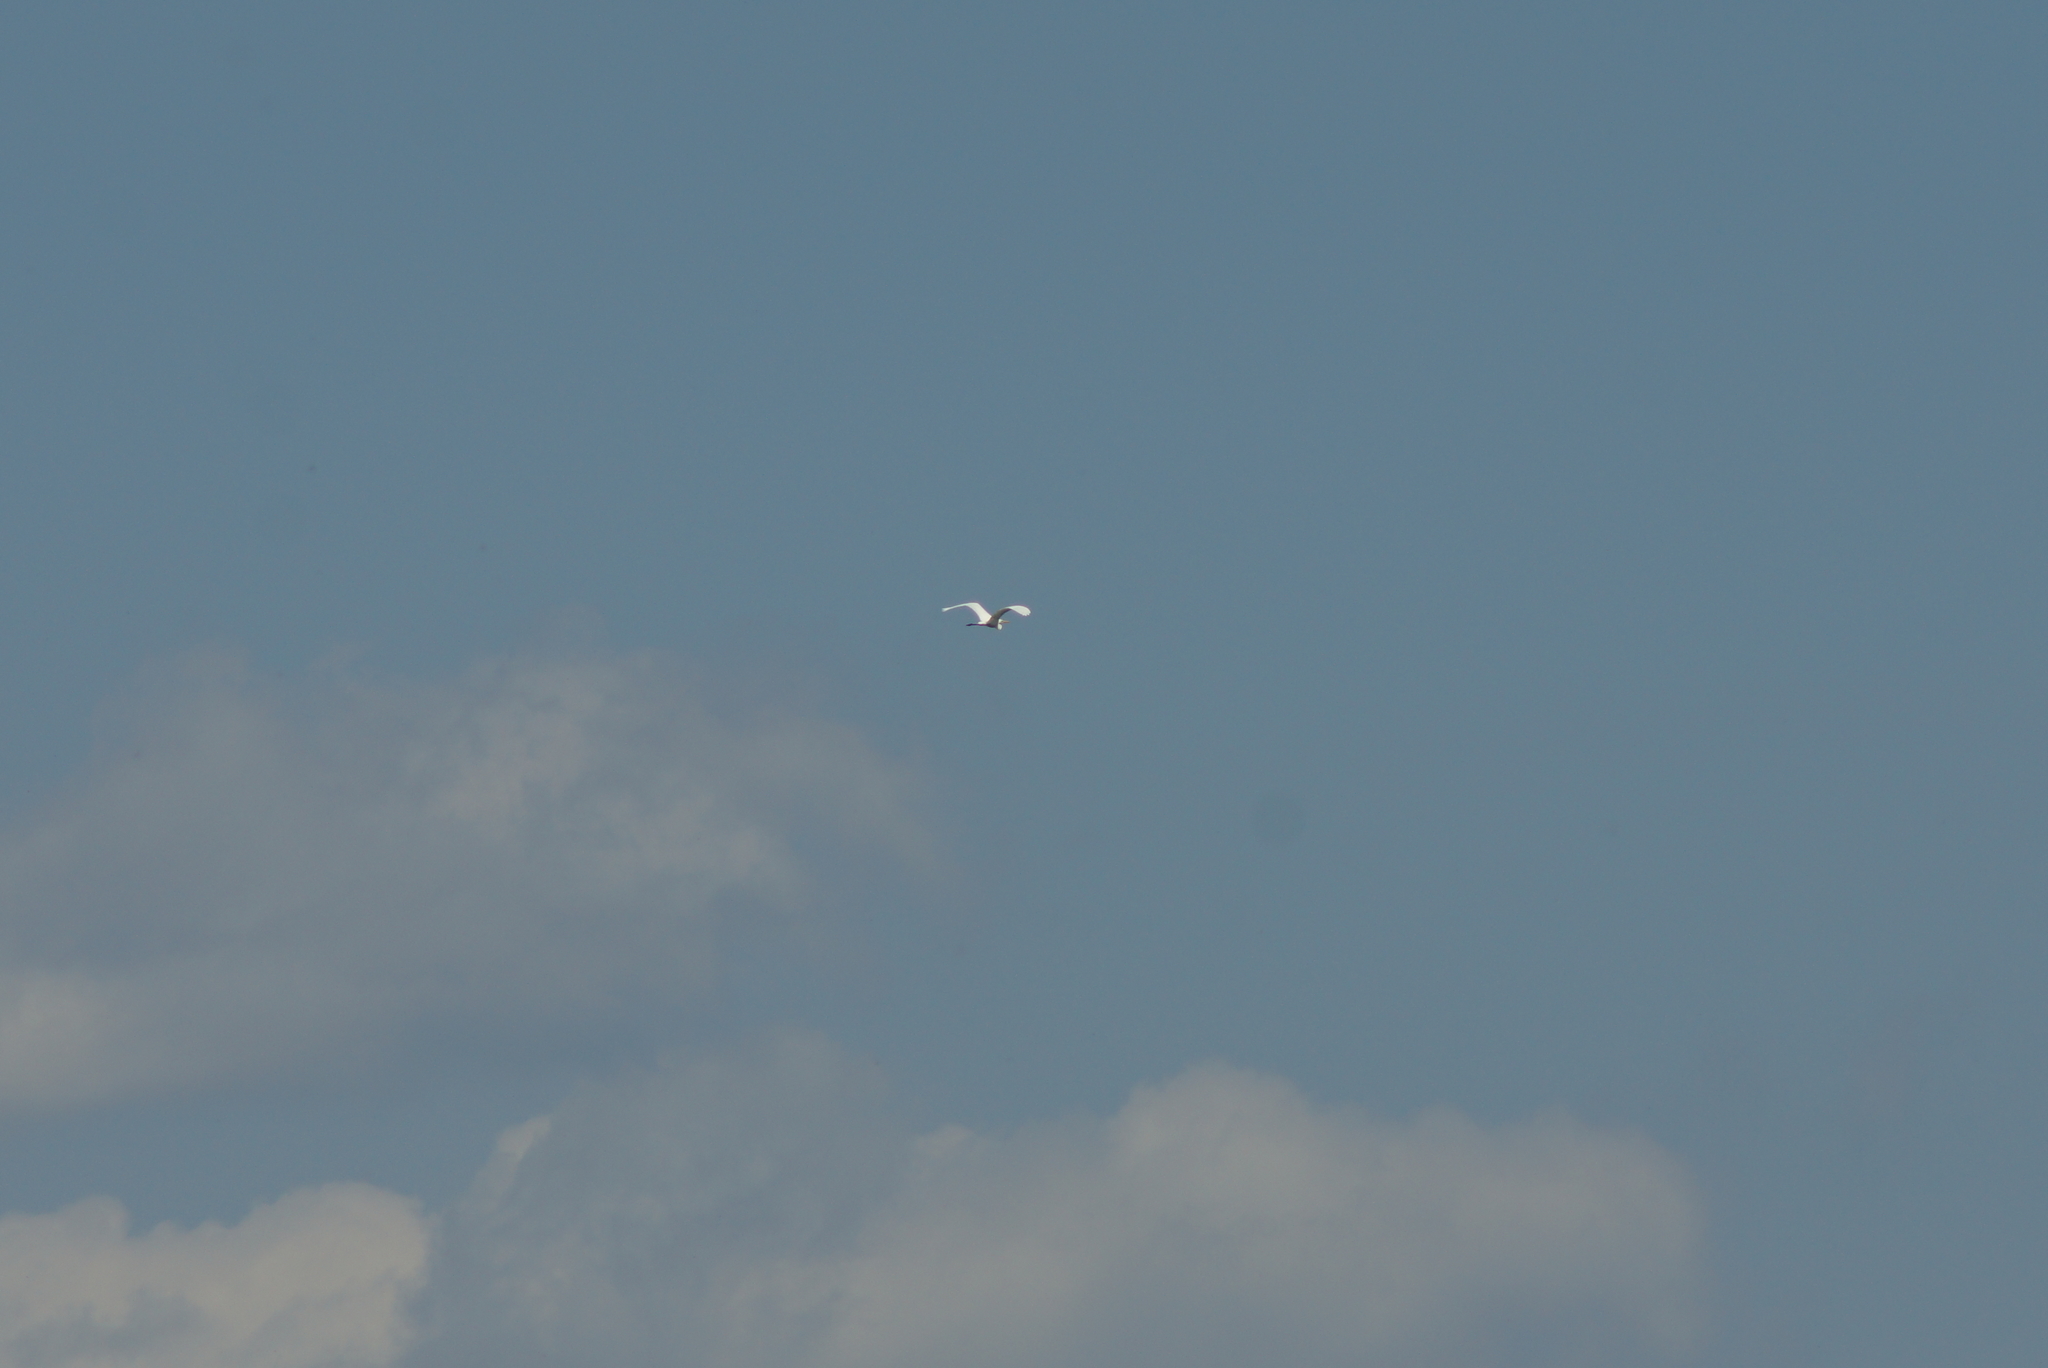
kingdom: Animalia
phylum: Chordata
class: Aves
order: Pelecaniformes
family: Ardeidae
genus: Ardea
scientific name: Ardea alba
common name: Great egret
